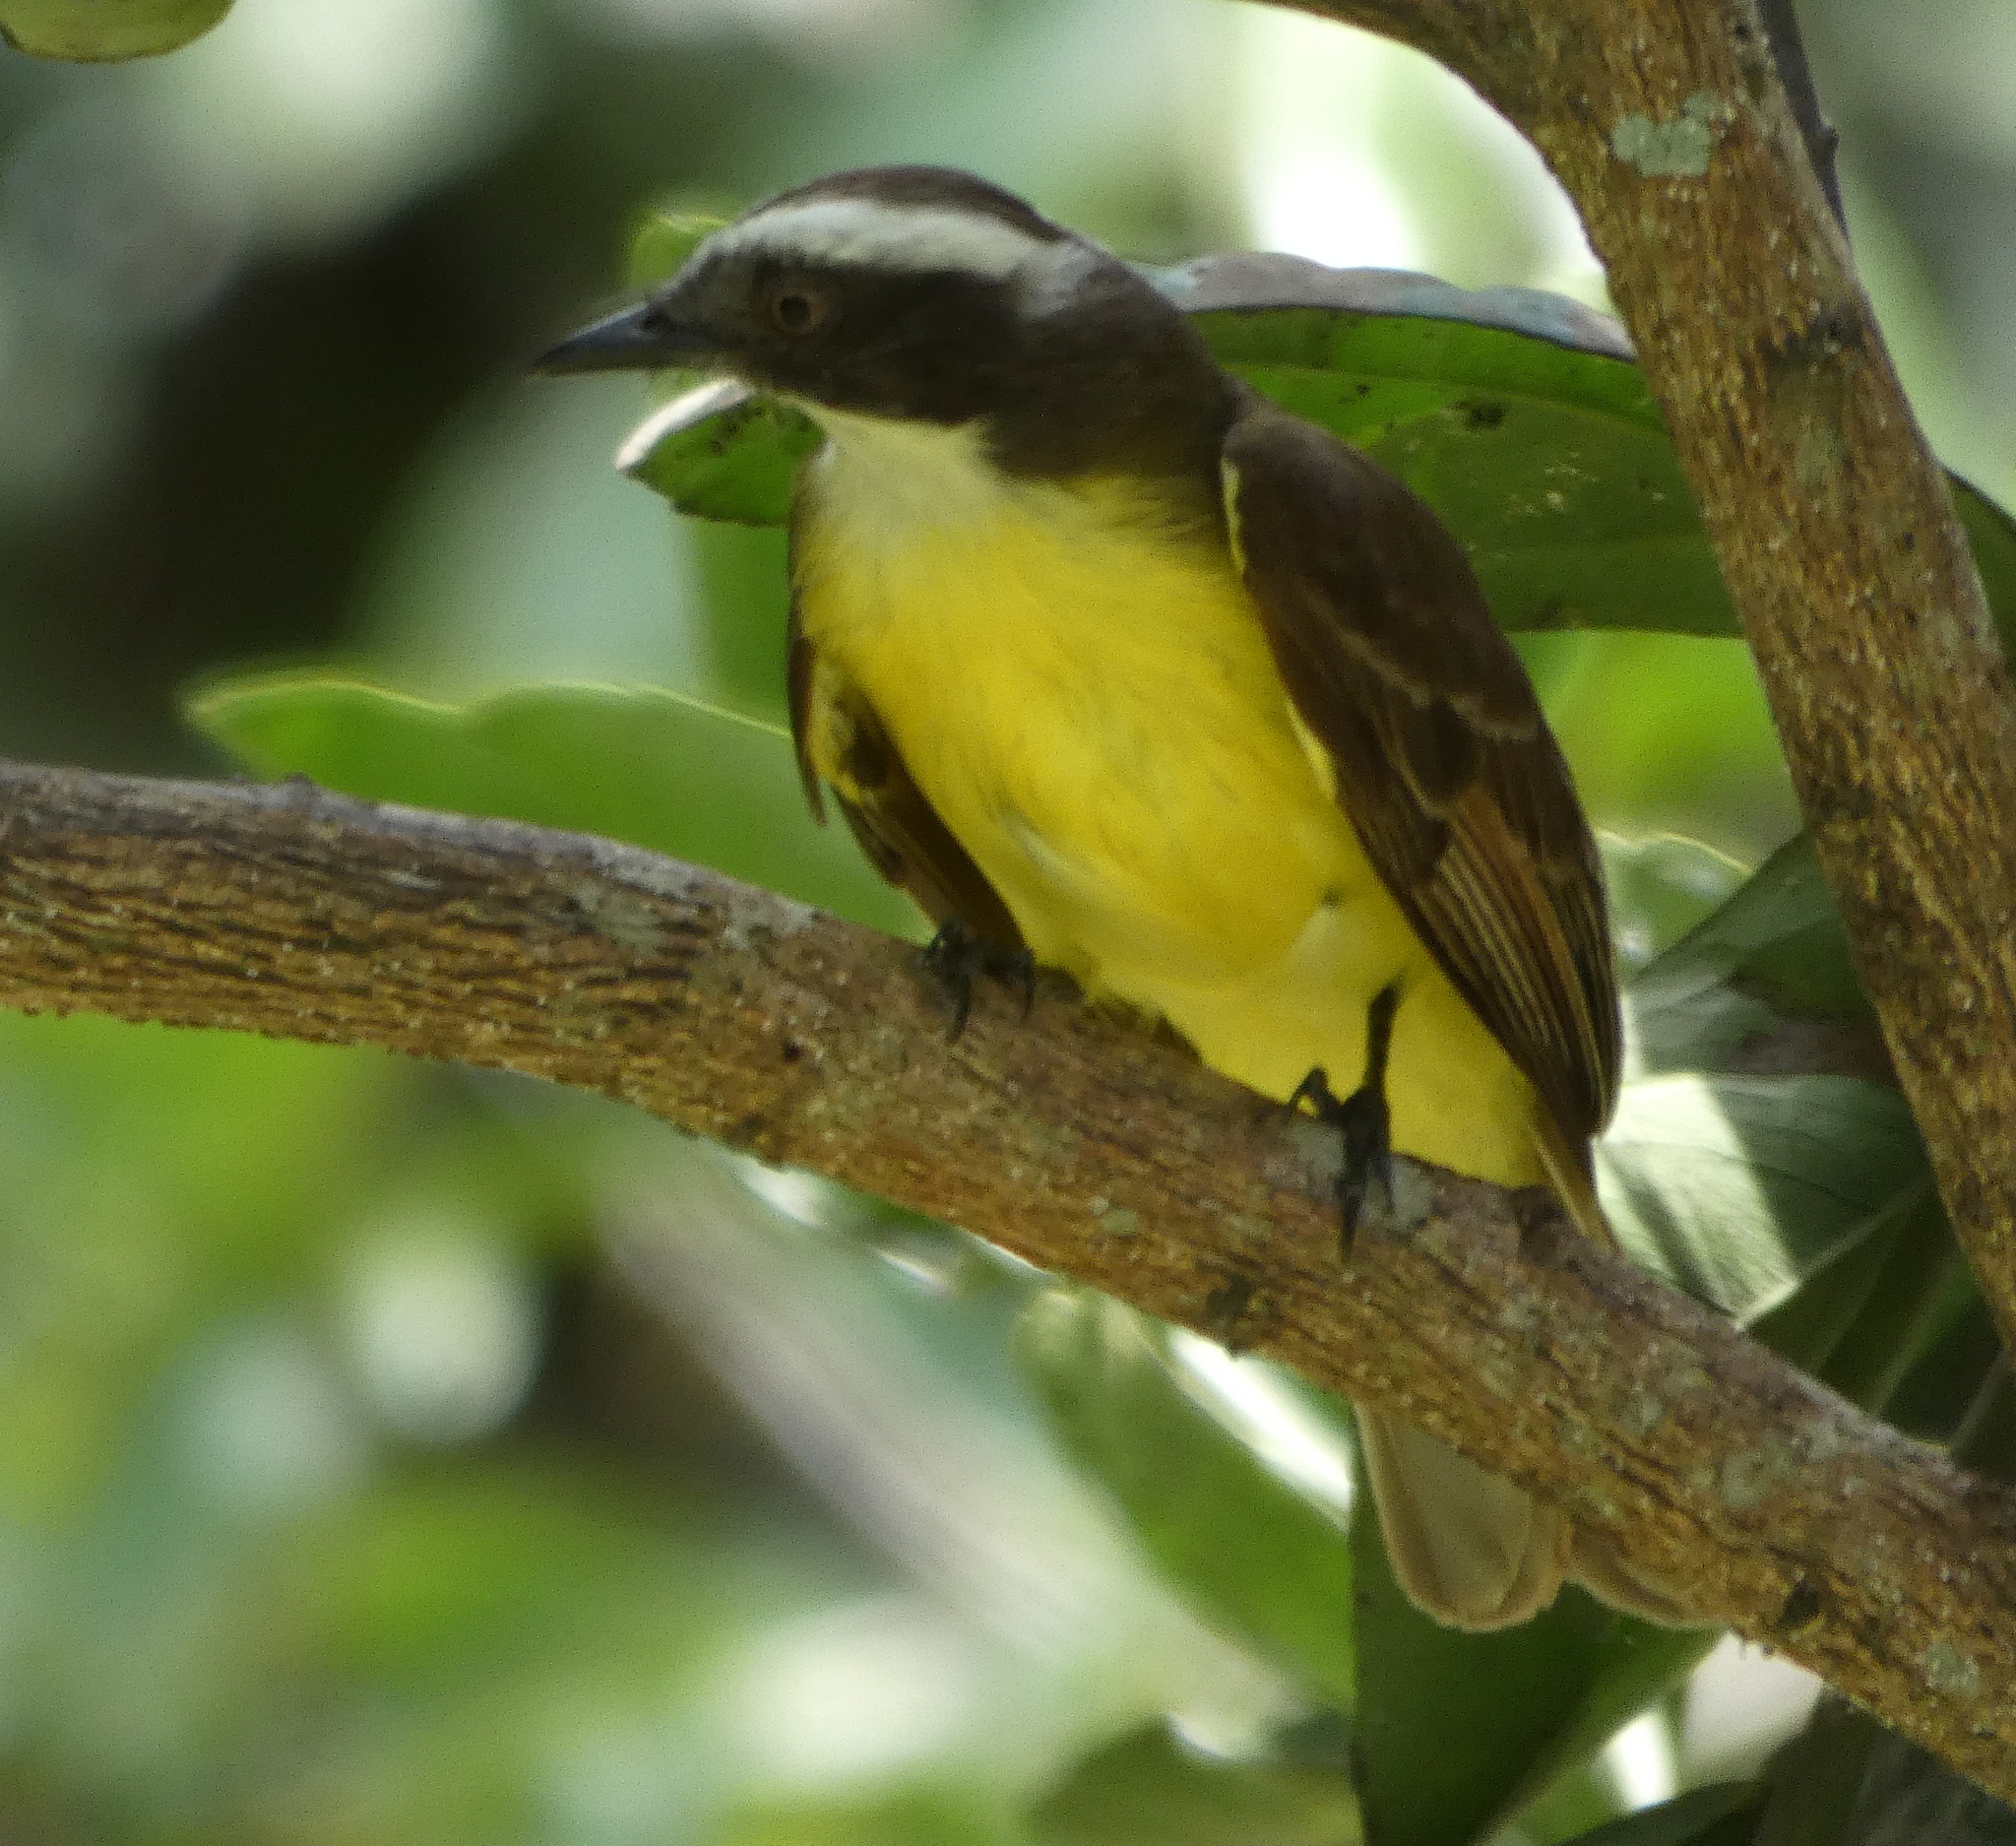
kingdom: Animalia
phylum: Chordata
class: Aves
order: Passeriformes
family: Tyrannidae
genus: Myiozetetes
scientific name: Myiozetetes similis
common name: Social flycatcher
